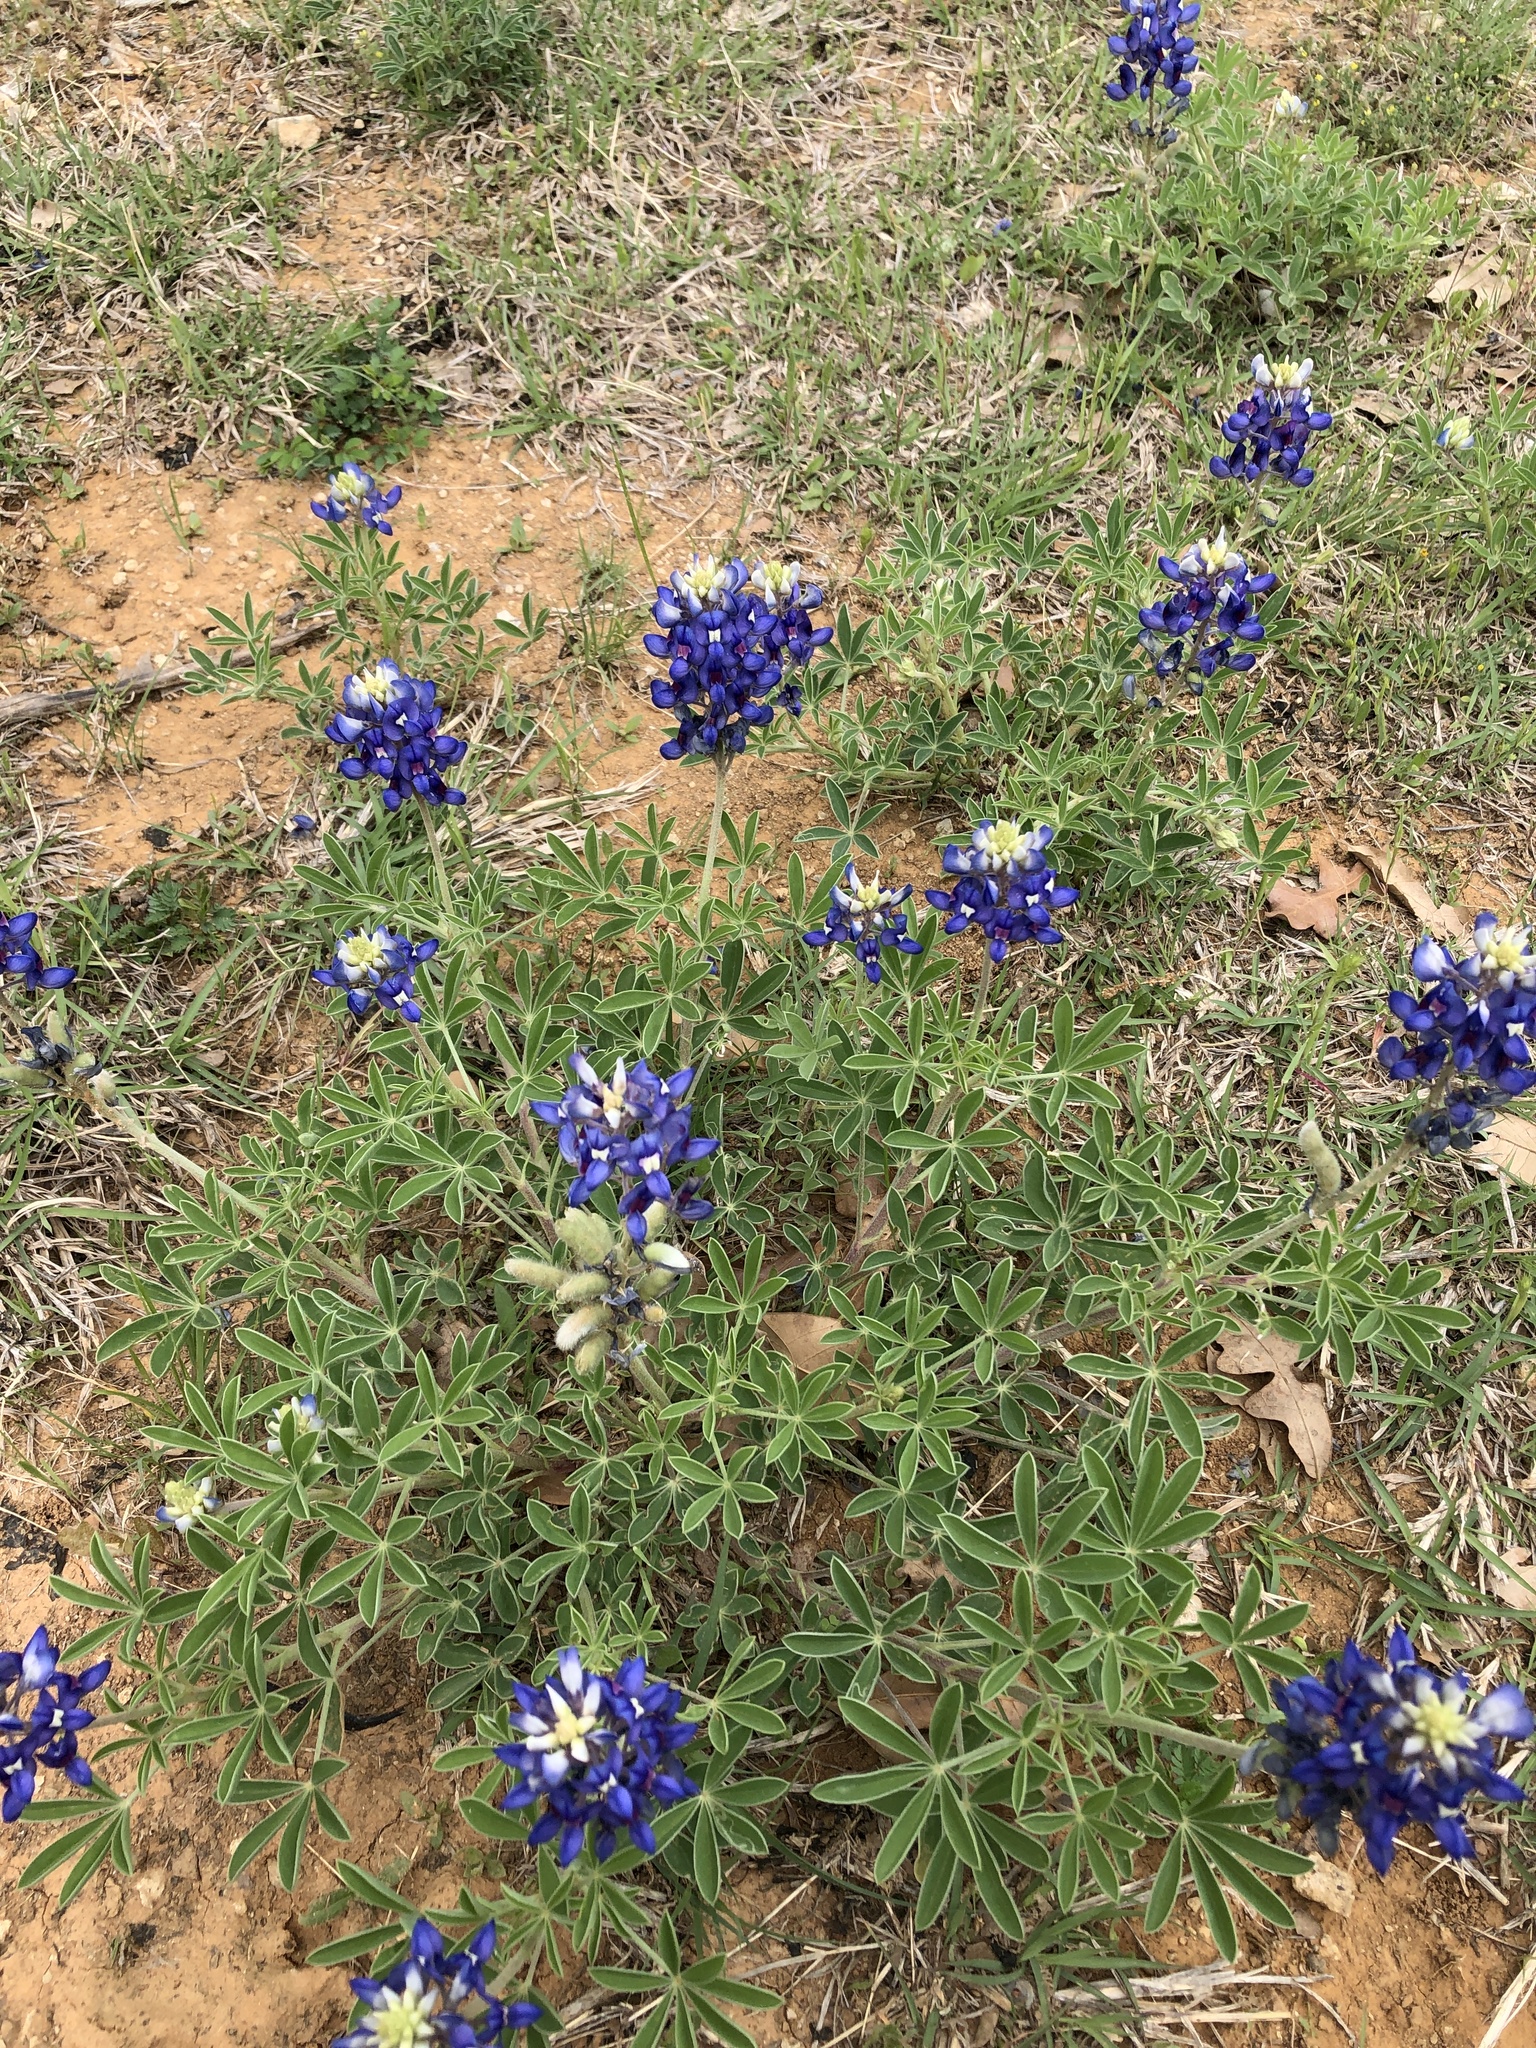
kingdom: Plantae
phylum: Tracheophyta
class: Magnoliopsida
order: Fabales
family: Fabaceae
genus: Lupinus
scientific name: Lupinus texensis
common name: Texas bluebonnet
